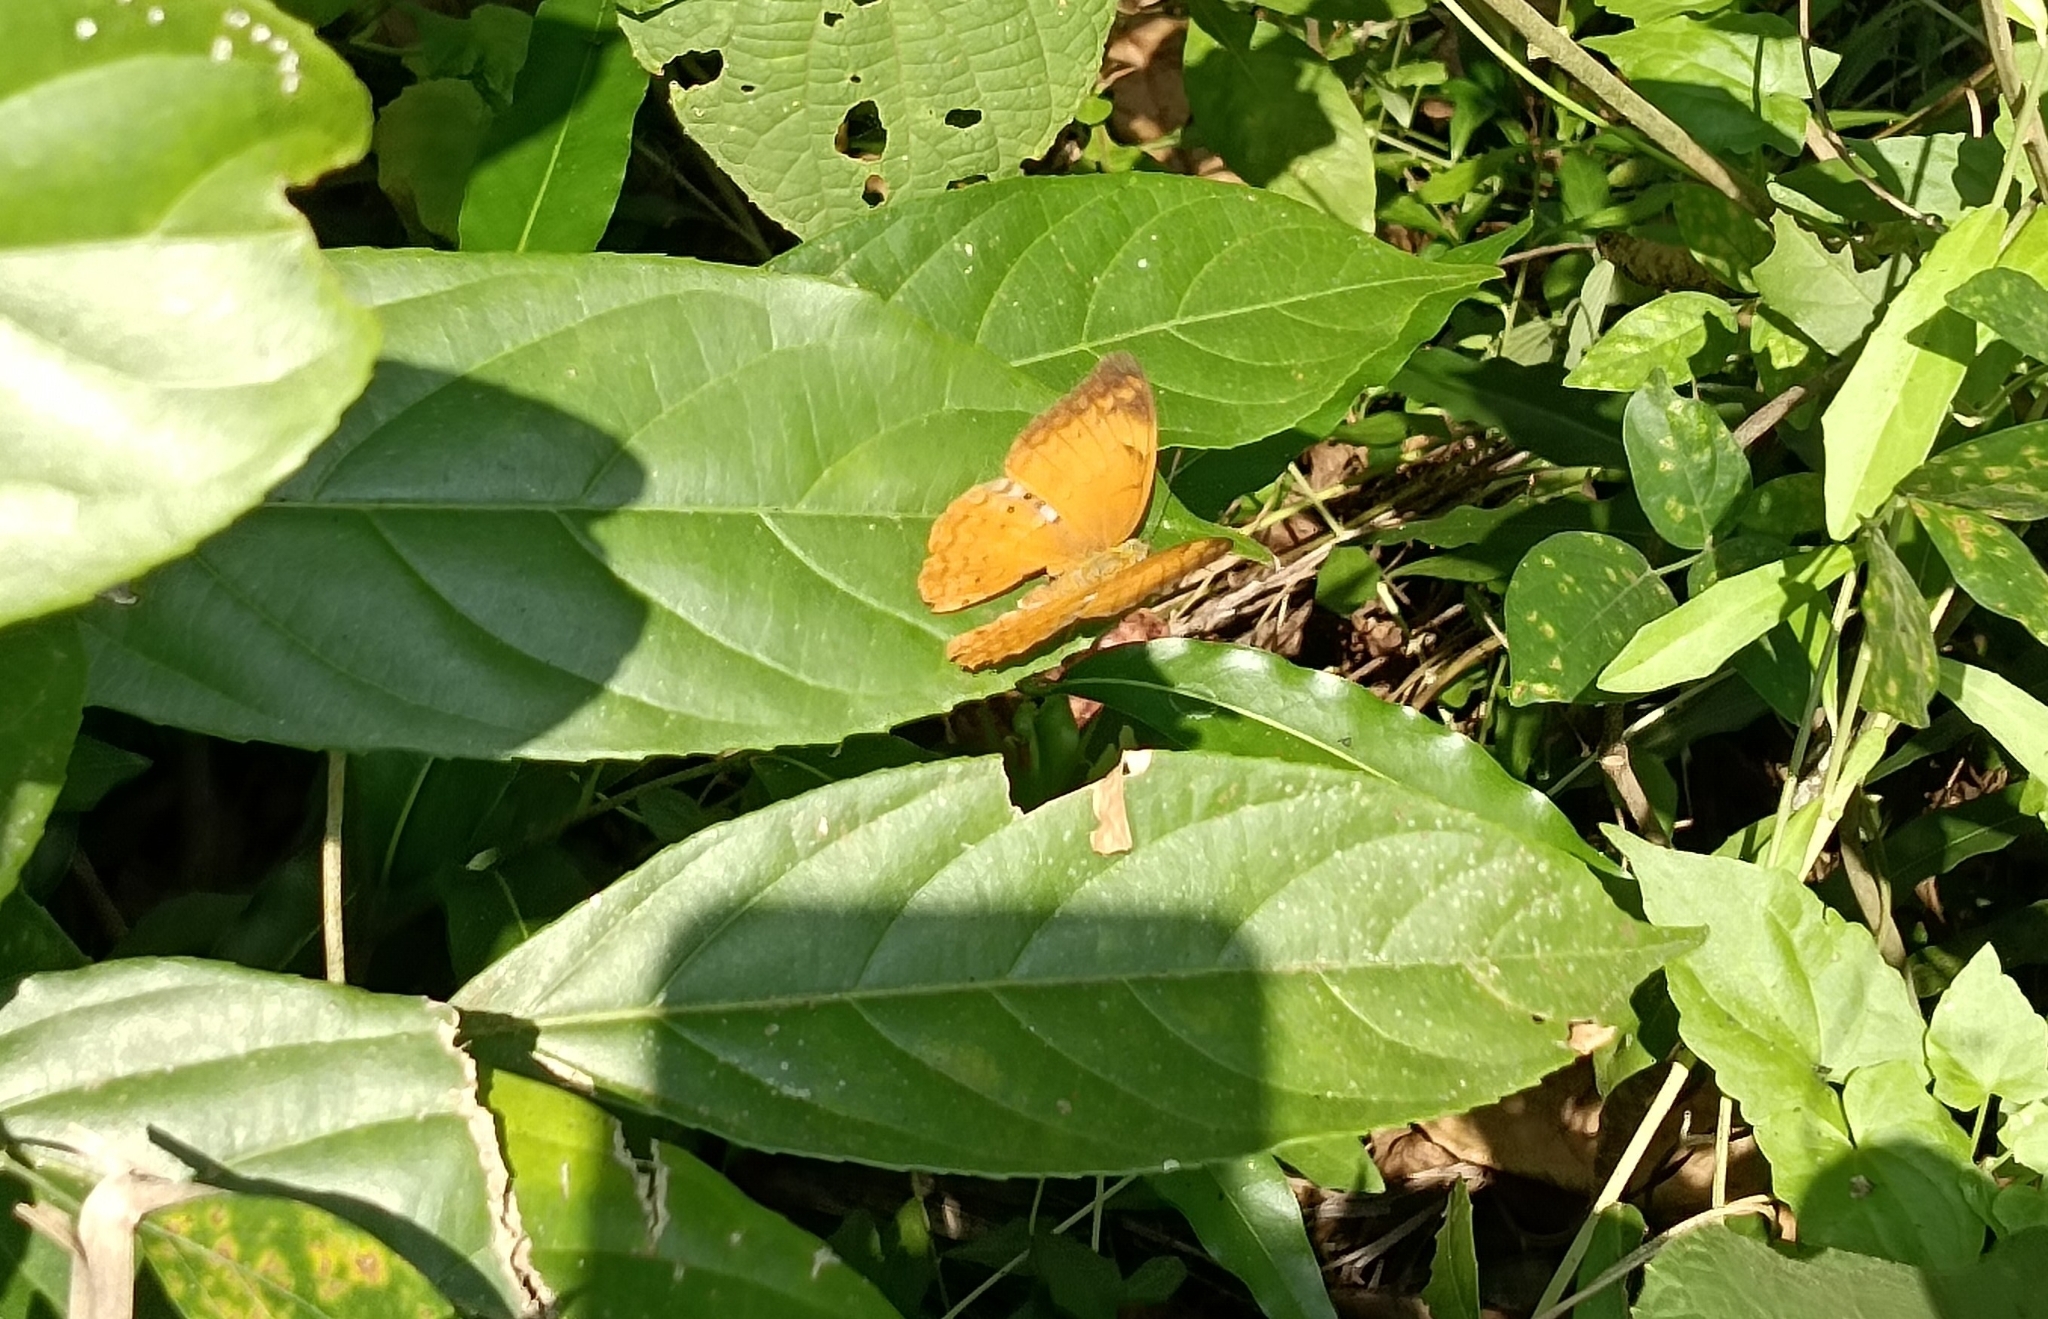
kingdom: Animalia
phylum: Arthropoda
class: Insecta
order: Lepidoptera
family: Nymphalidae
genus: Cirrochroa
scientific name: Cirrochroa thais
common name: Tamil yeoman
